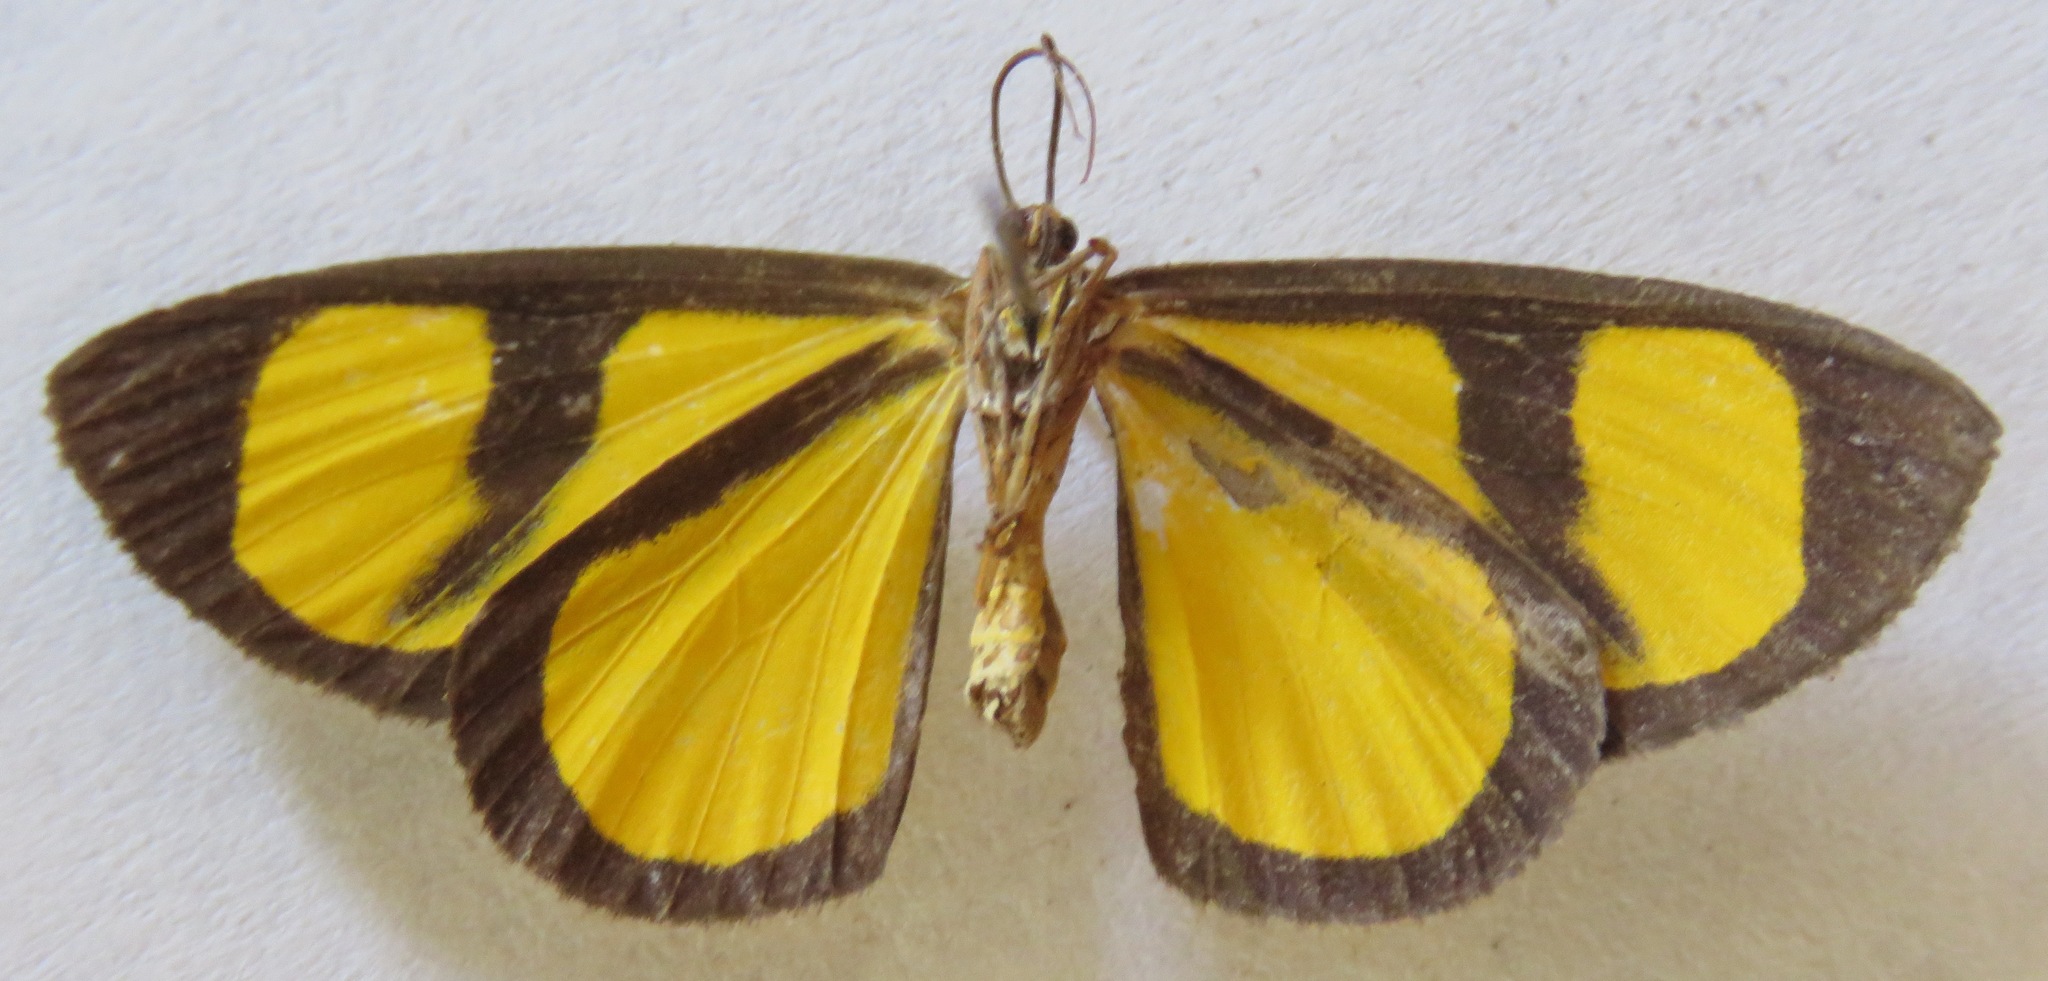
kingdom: Animalia
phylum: Arthropoda
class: Insecta
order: Lepidoptera
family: Geometridae
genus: Smicropus
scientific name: Smicropus laeta
